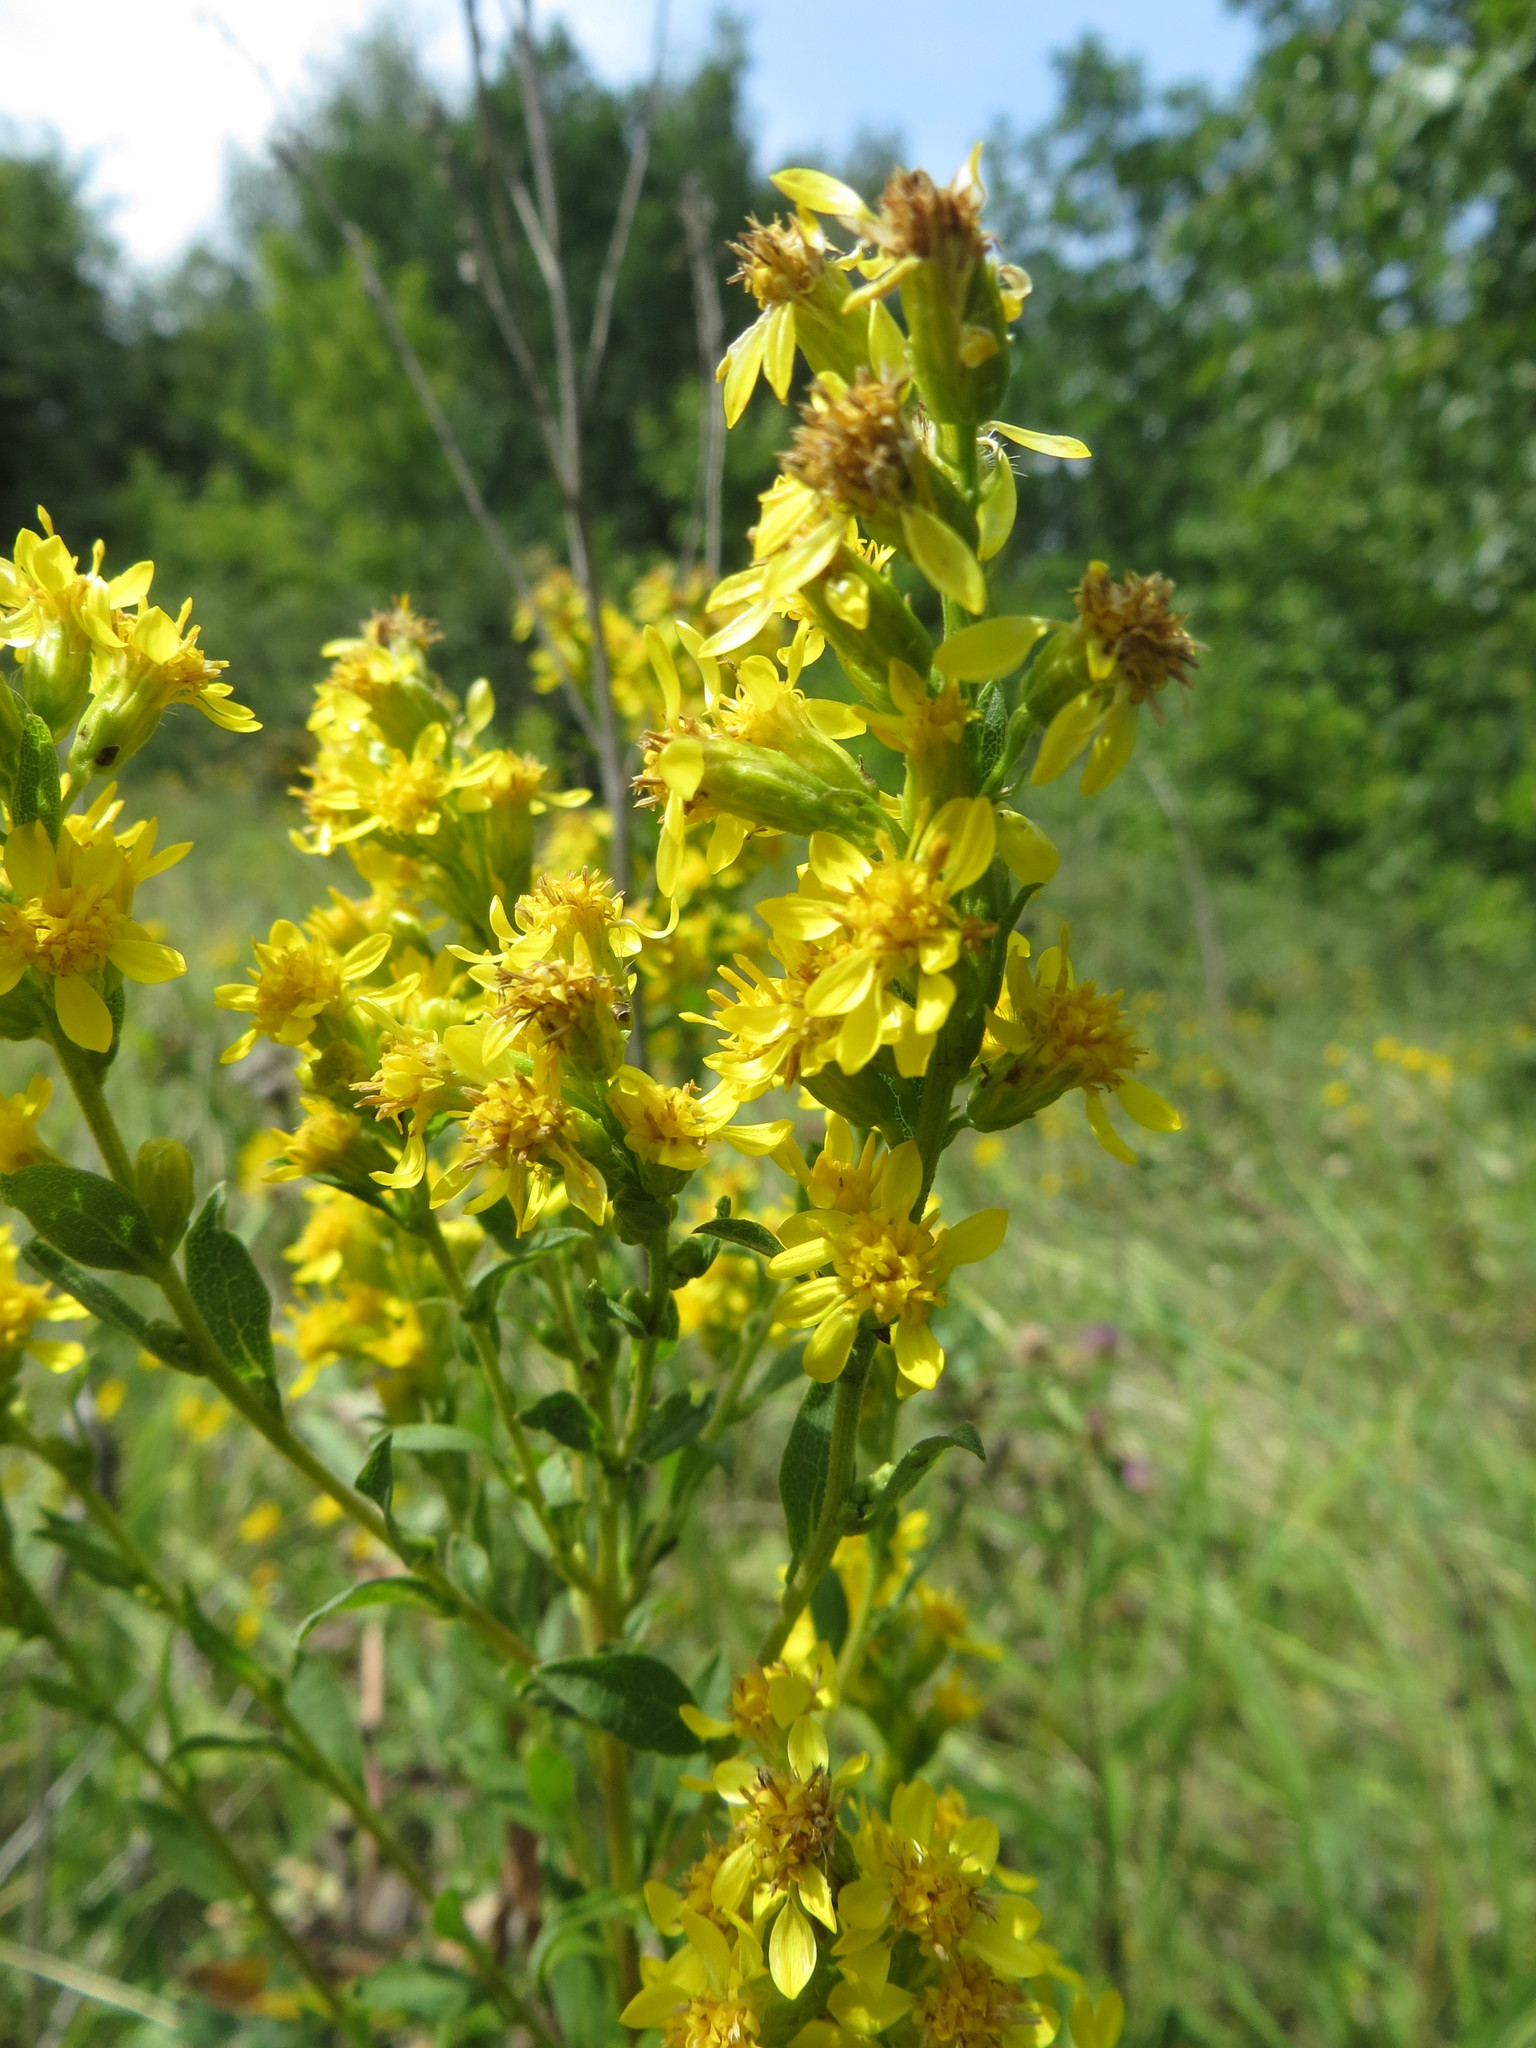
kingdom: Plantae
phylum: Tracheophyta
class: Magnoliopsida
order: Asterales
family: Asteraceae
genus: Solidago
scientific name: Solidago virgaurea
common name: Goldenrod
